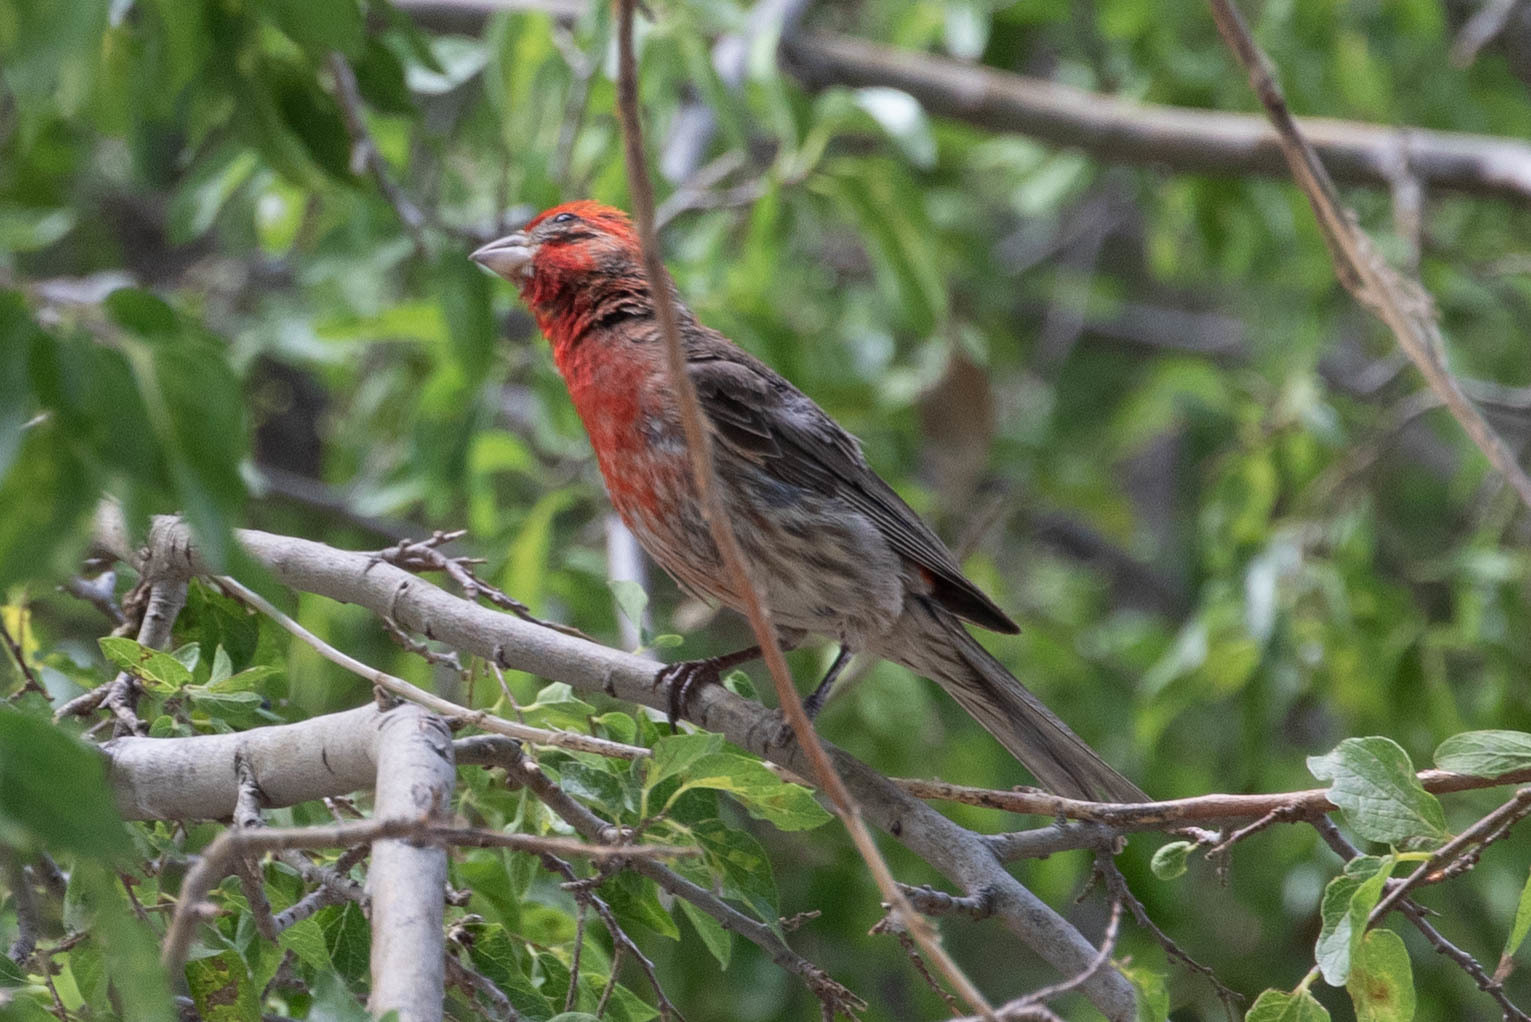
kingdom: Animalia
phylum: Chordata
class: Aves
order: Passeriformes
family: Fringillidae
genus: Haemorhous
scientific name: Haemorhous mexicanus
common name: House finch
